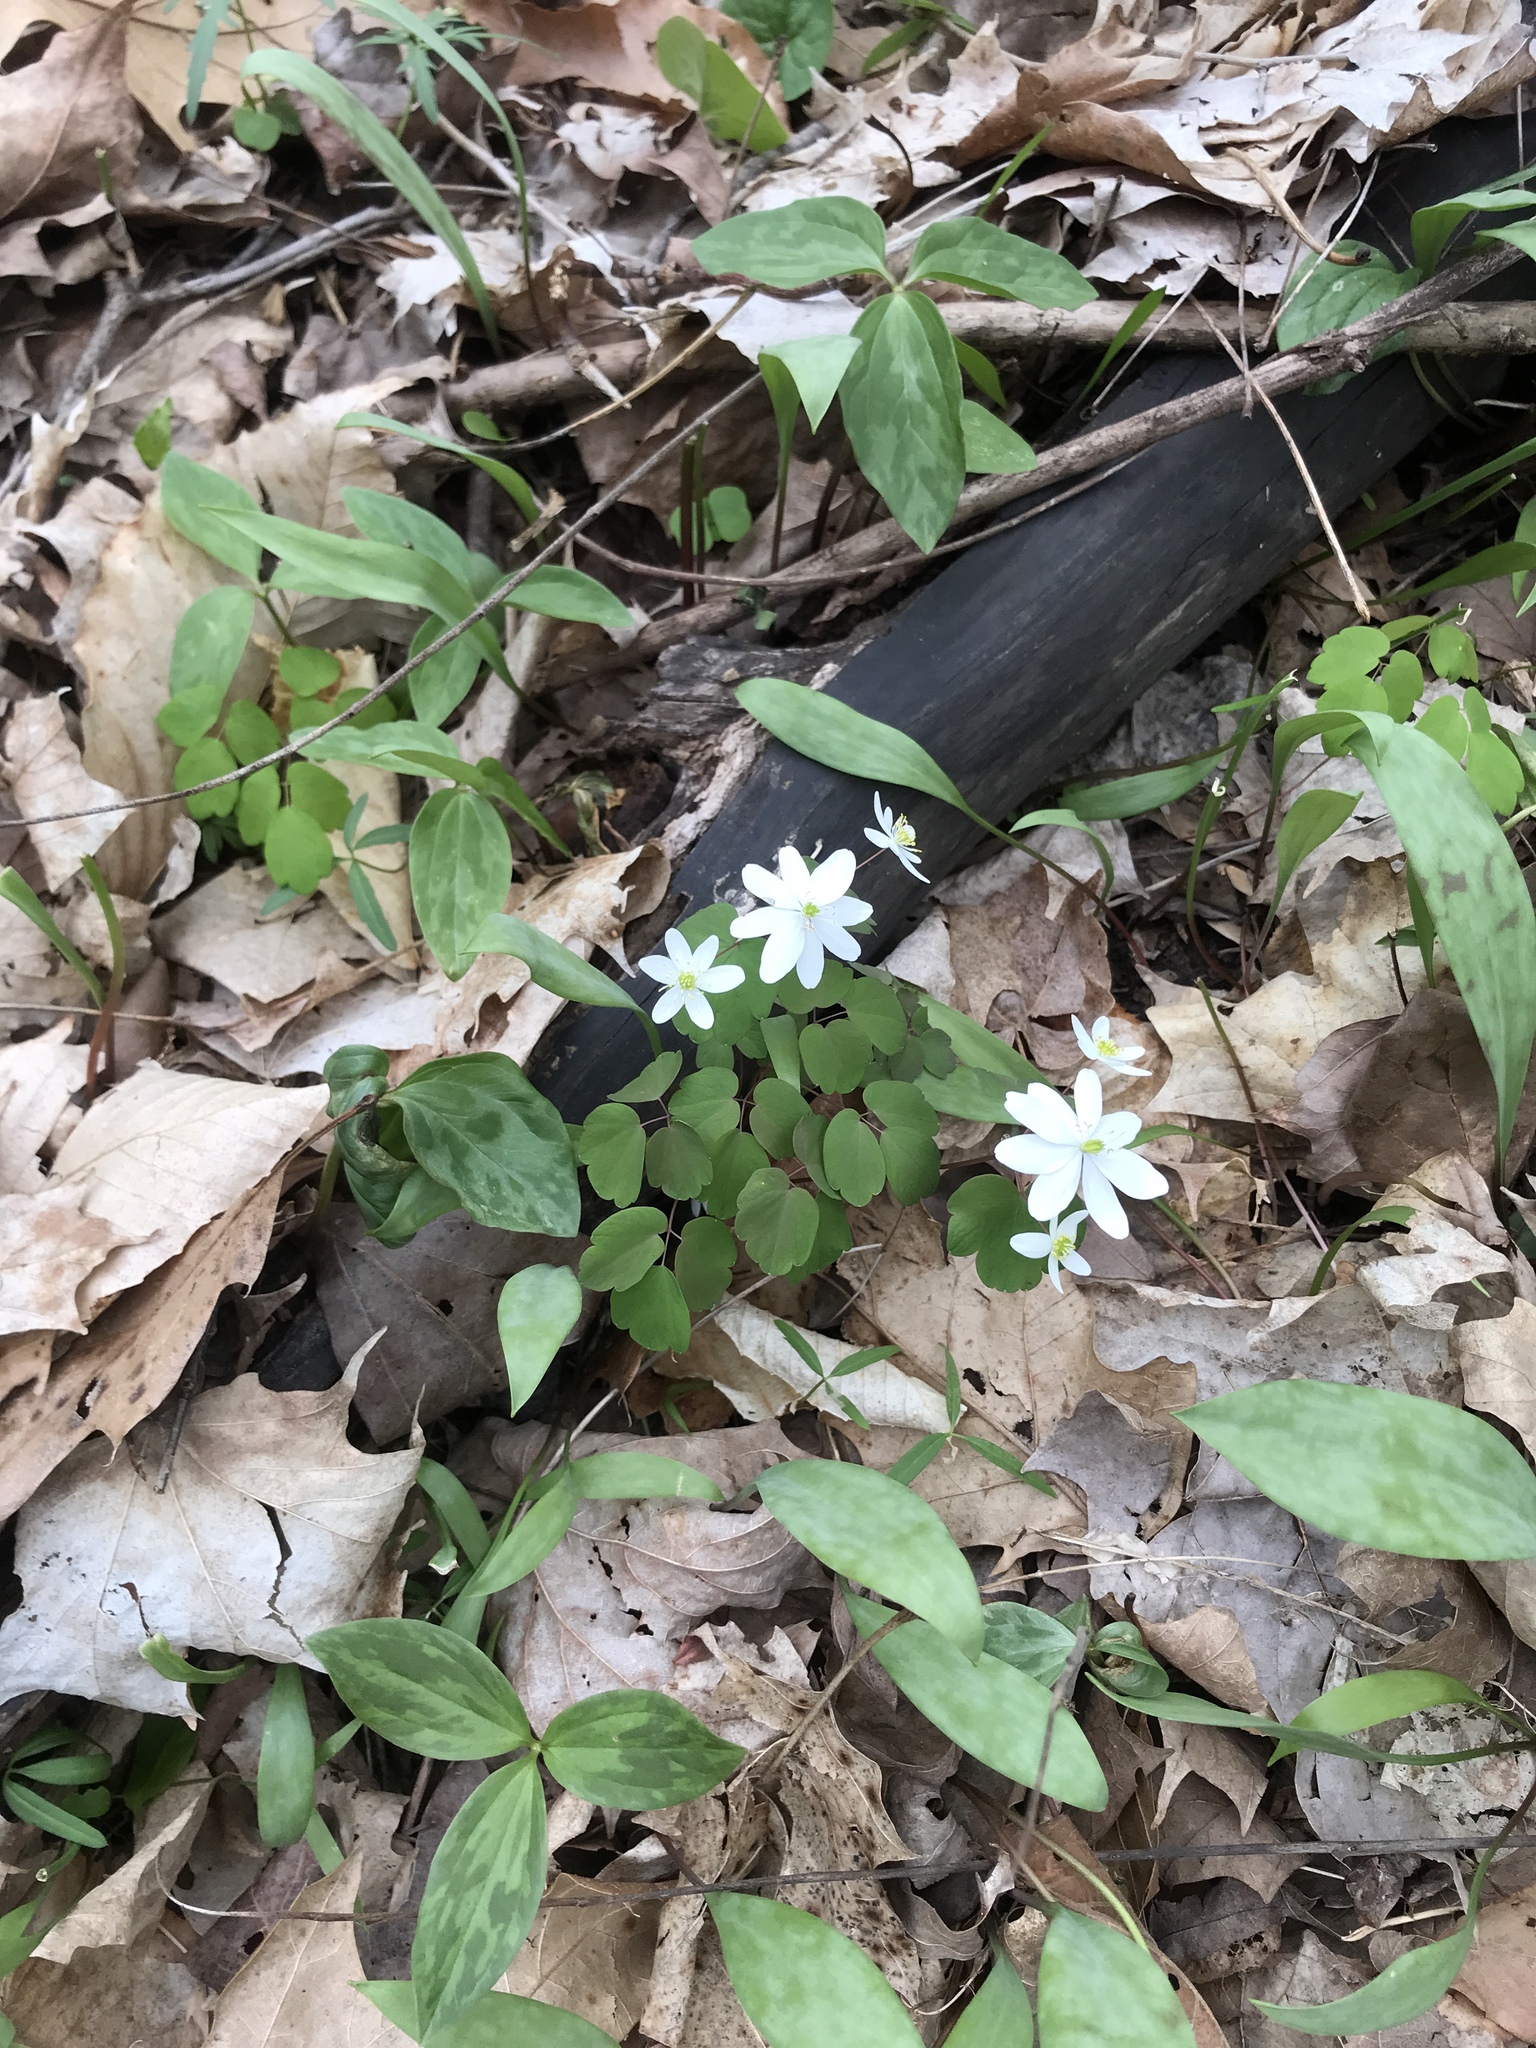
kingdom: Plantae
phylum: Tracheophyta
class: Magnoliopsida
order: Ranunculales
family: Ranunculaceae
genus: Thalictrum
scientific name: Thalictrum thalictroides
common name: Rue-anemone
